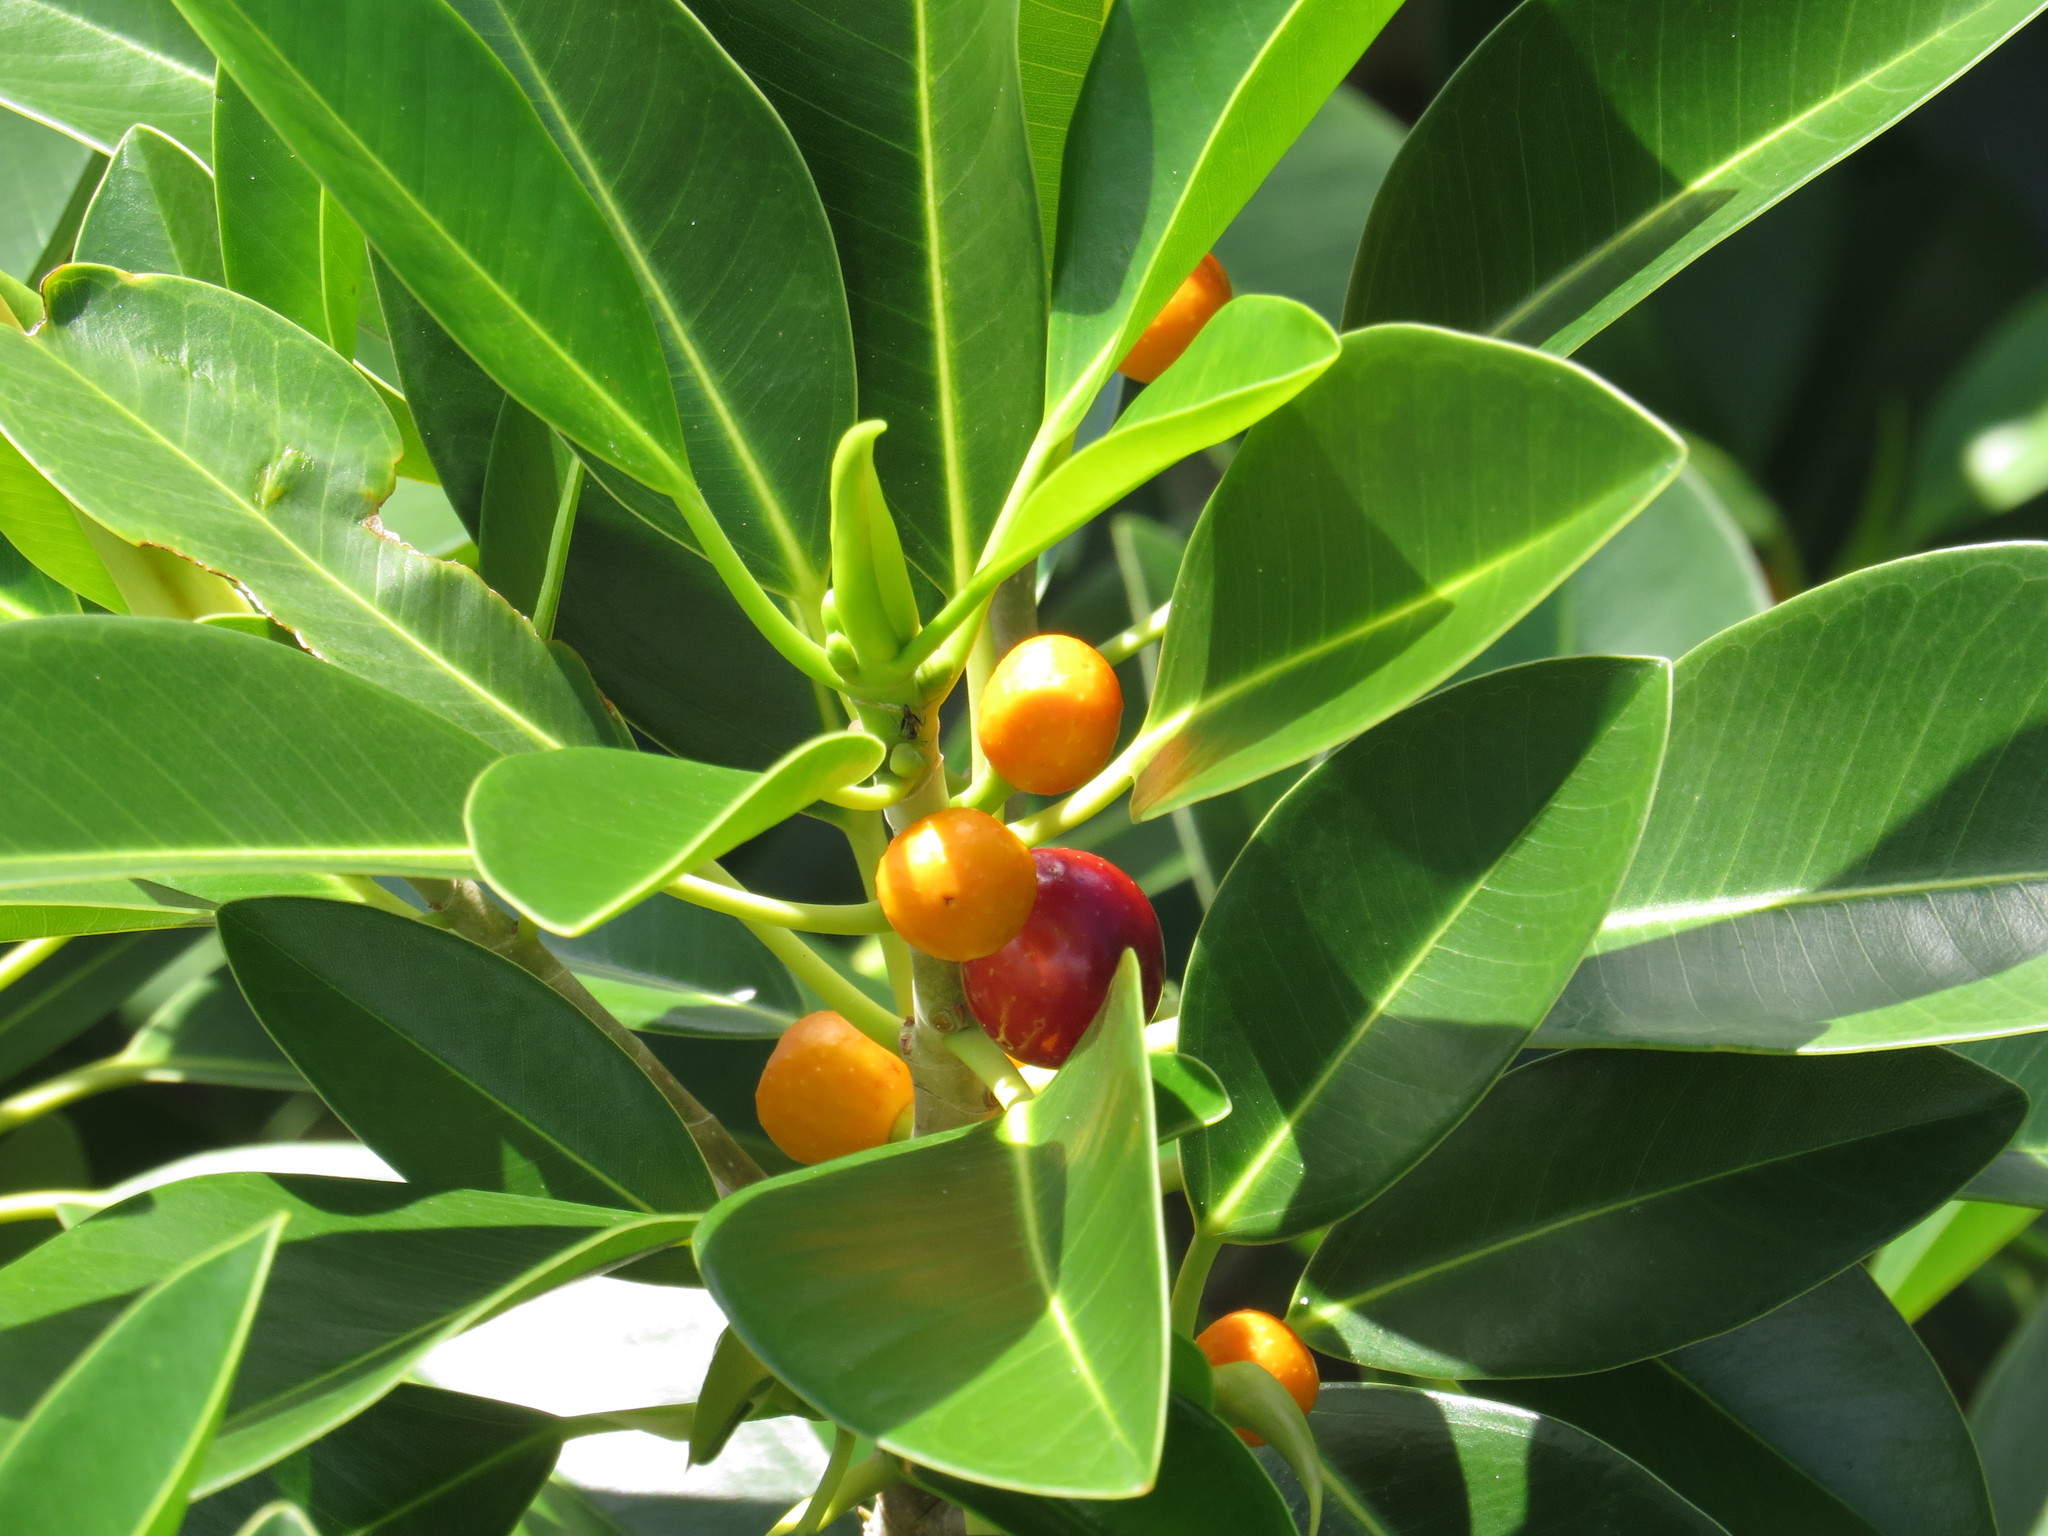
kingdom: Plantae
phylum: Tracheophyta
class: Magnoliopsida
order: Rosales
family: Moraceae
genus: Ficus
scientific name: Ficus rubiginosa
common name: Port jackson fig
